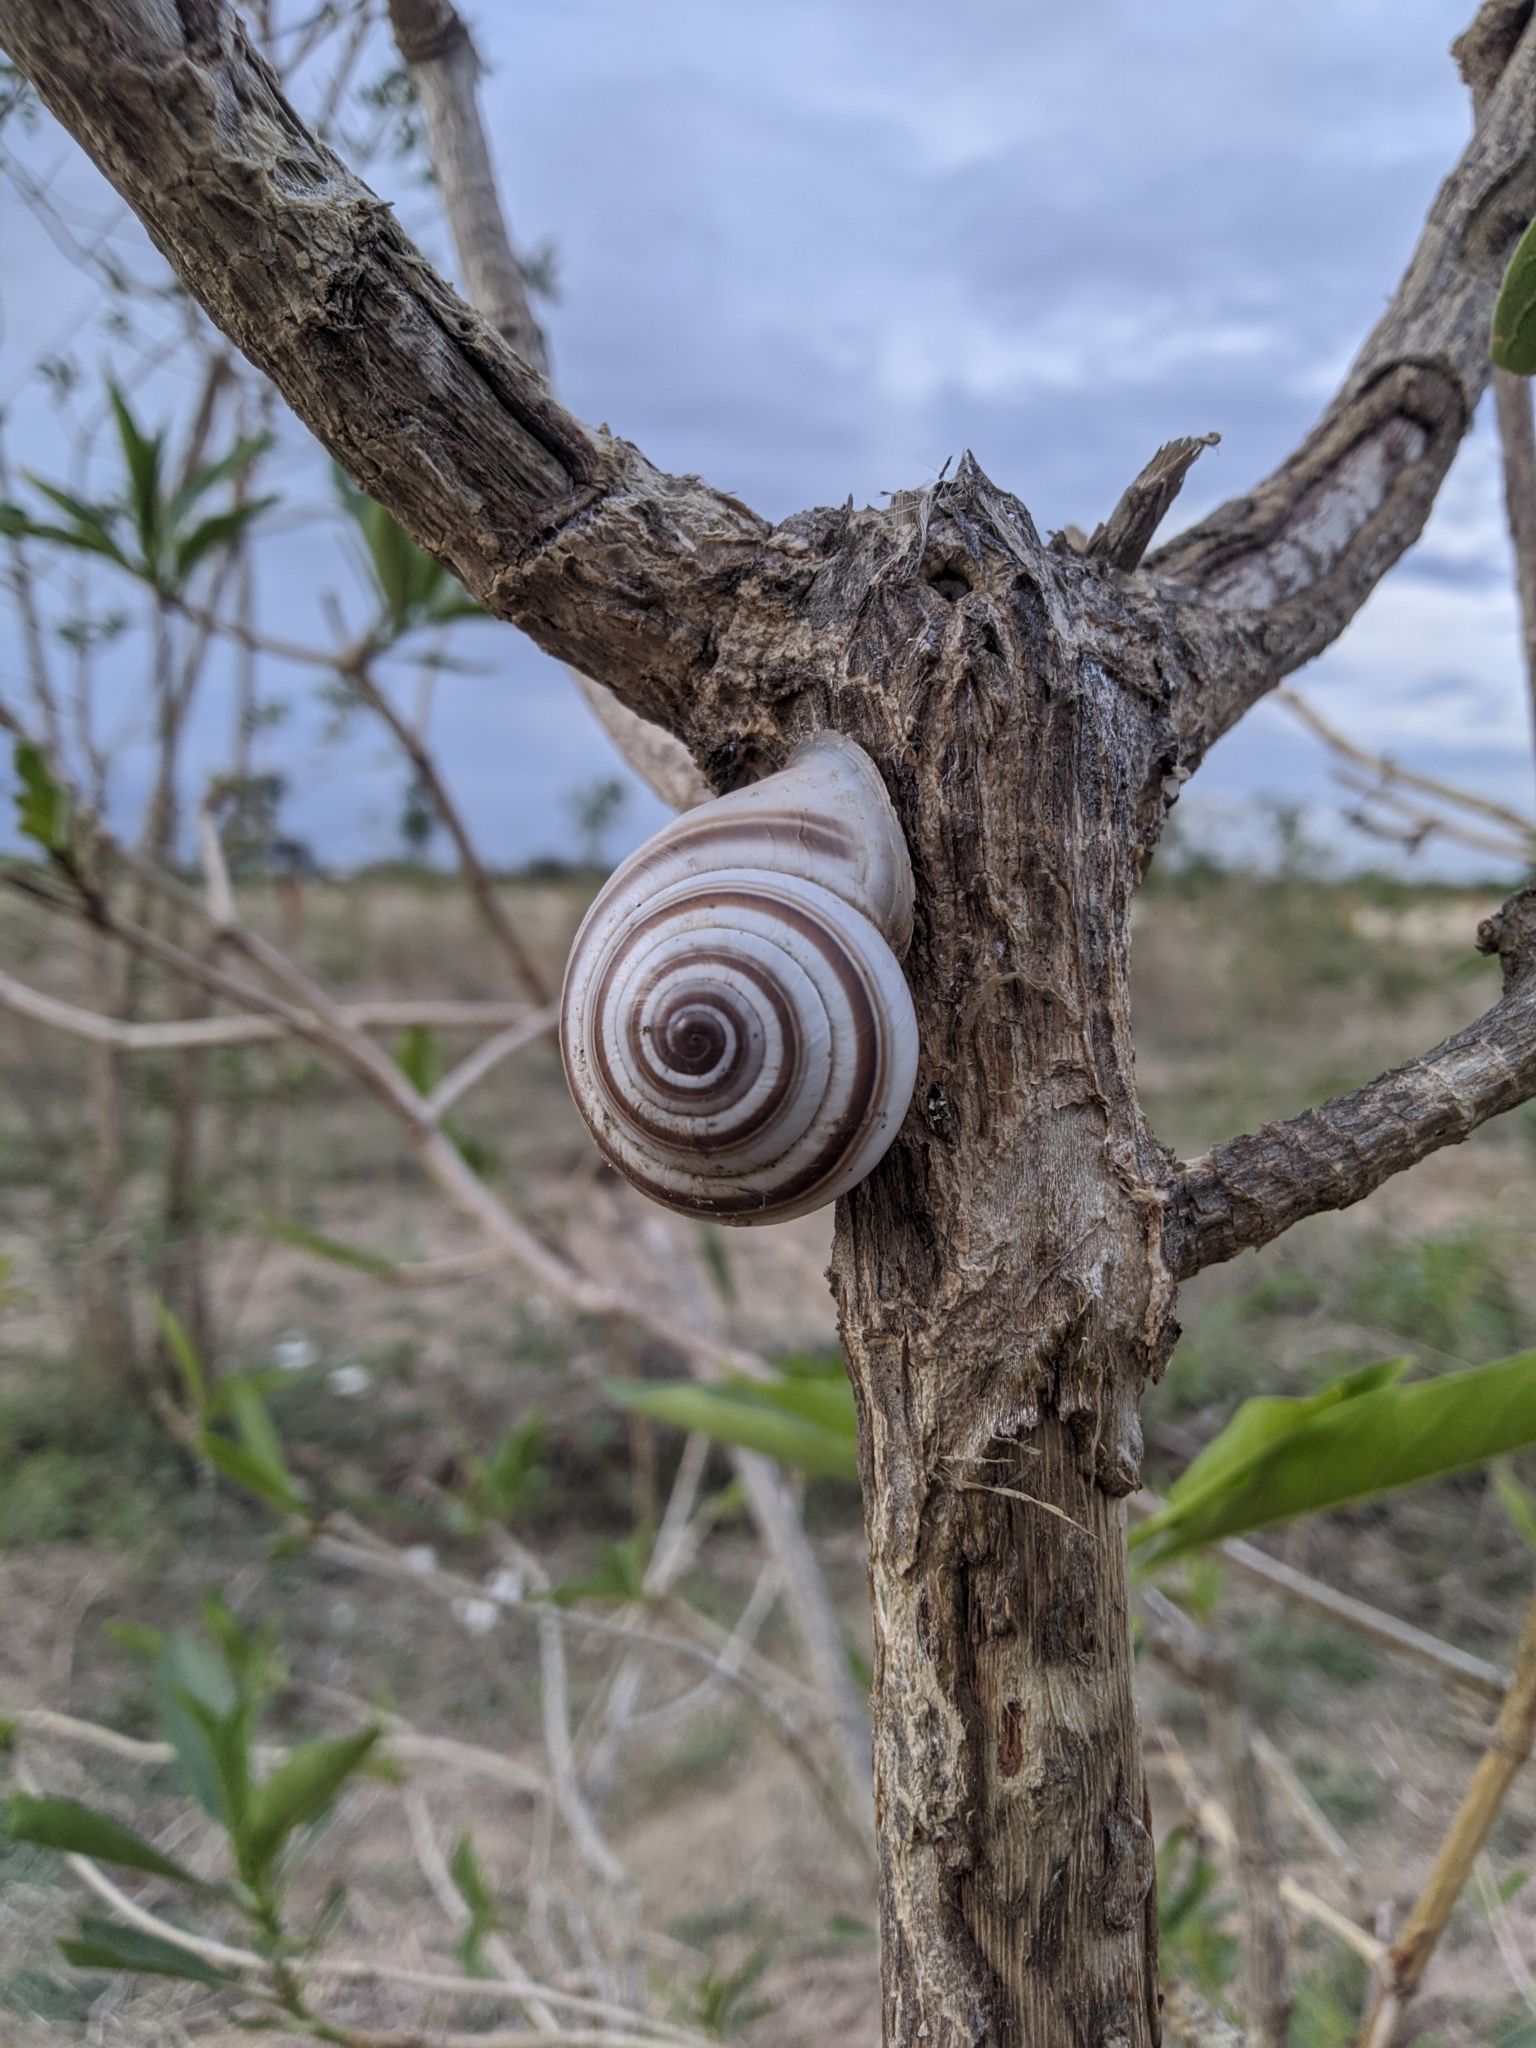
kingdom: Animalia
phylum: Mollusca
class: Gastropoda
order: Stylommatophora
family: Camaenidae
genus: Pseudotrachia
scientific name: Pseudotrachia vittata
